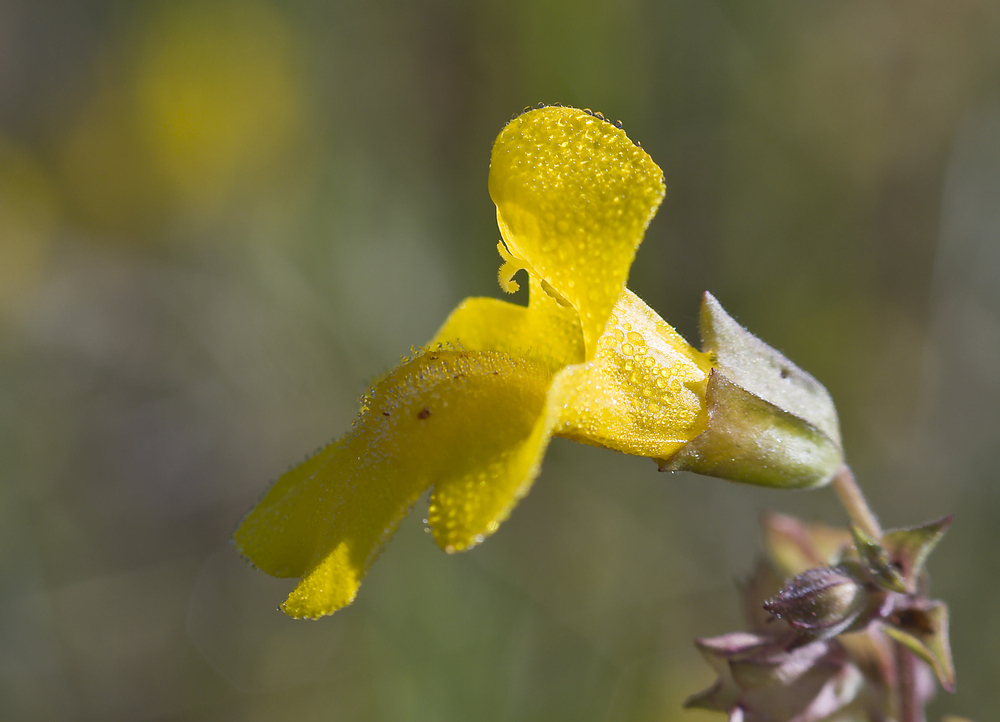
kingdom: Plantae
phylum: Tracheophyta
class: Magnoliopsida
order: Lamiales
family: Phrymaceae
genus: Erythranthe
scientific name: Erythranthe guttata
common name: Monkeyflower
